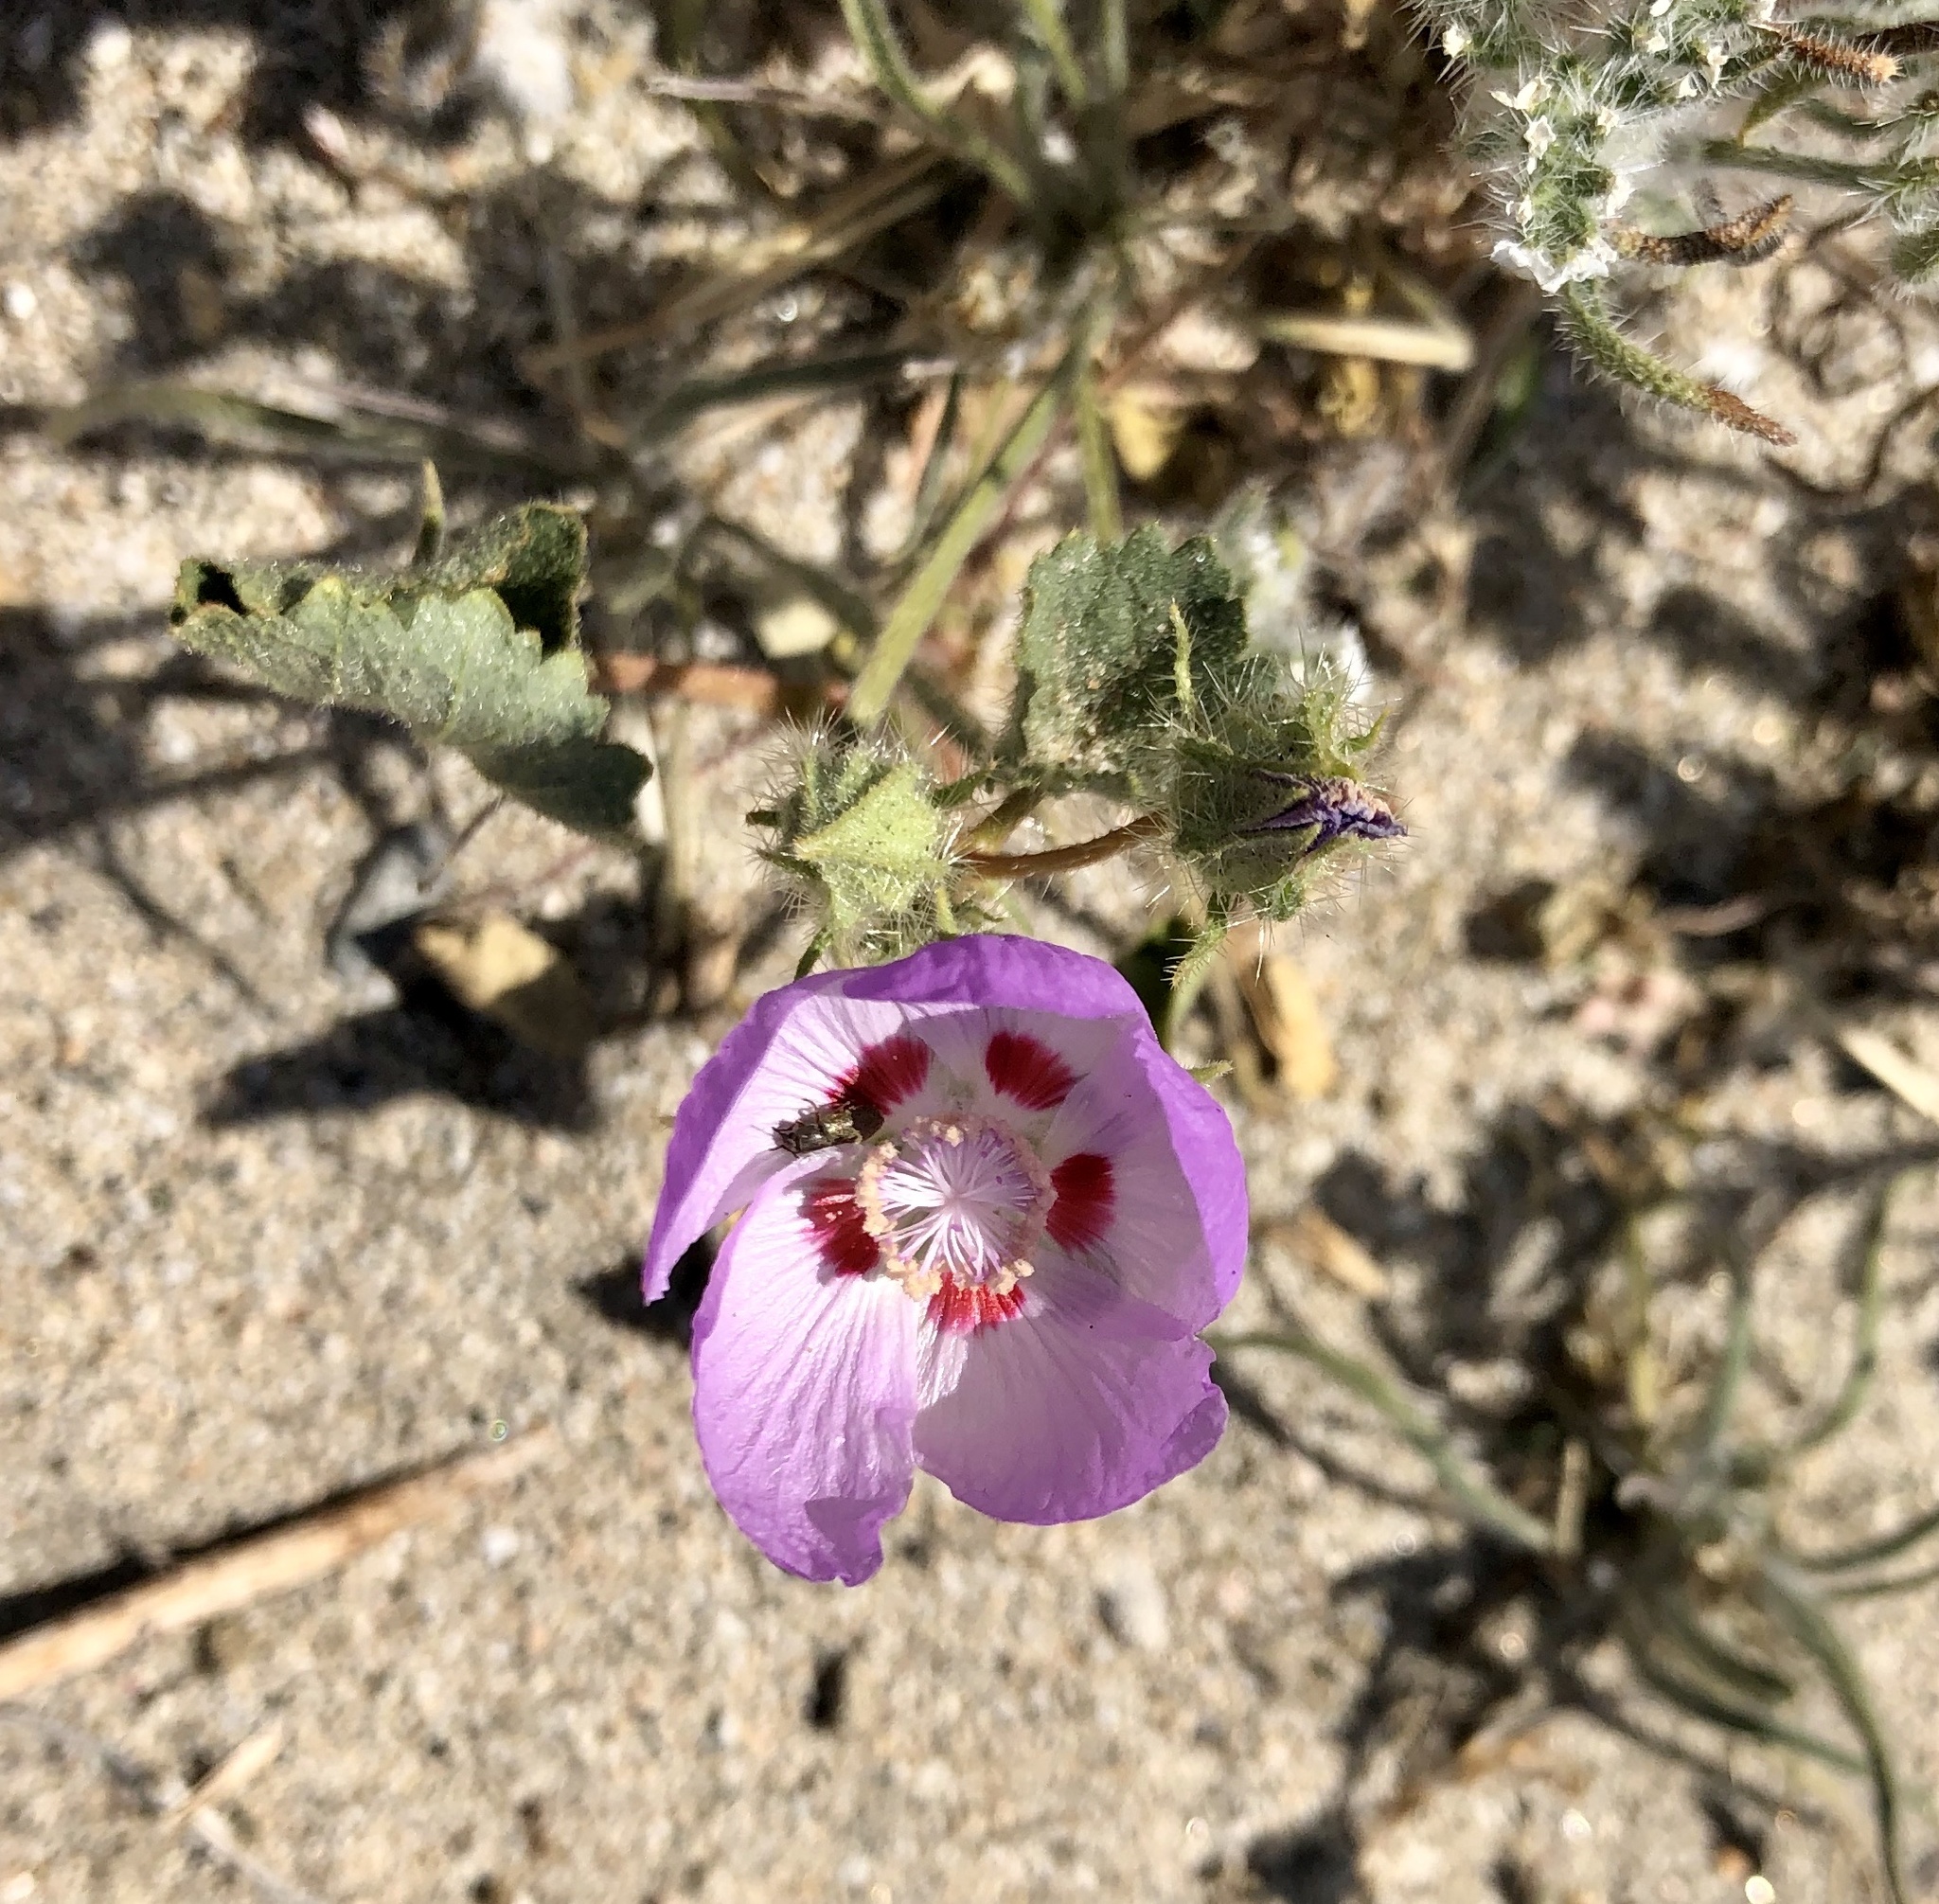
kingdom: Plantae
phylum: Tracheophyta
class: Magnoliopsida
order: Malvales
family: Malvaceae
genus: Eremalche
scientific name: Eremalche rotundifolia
